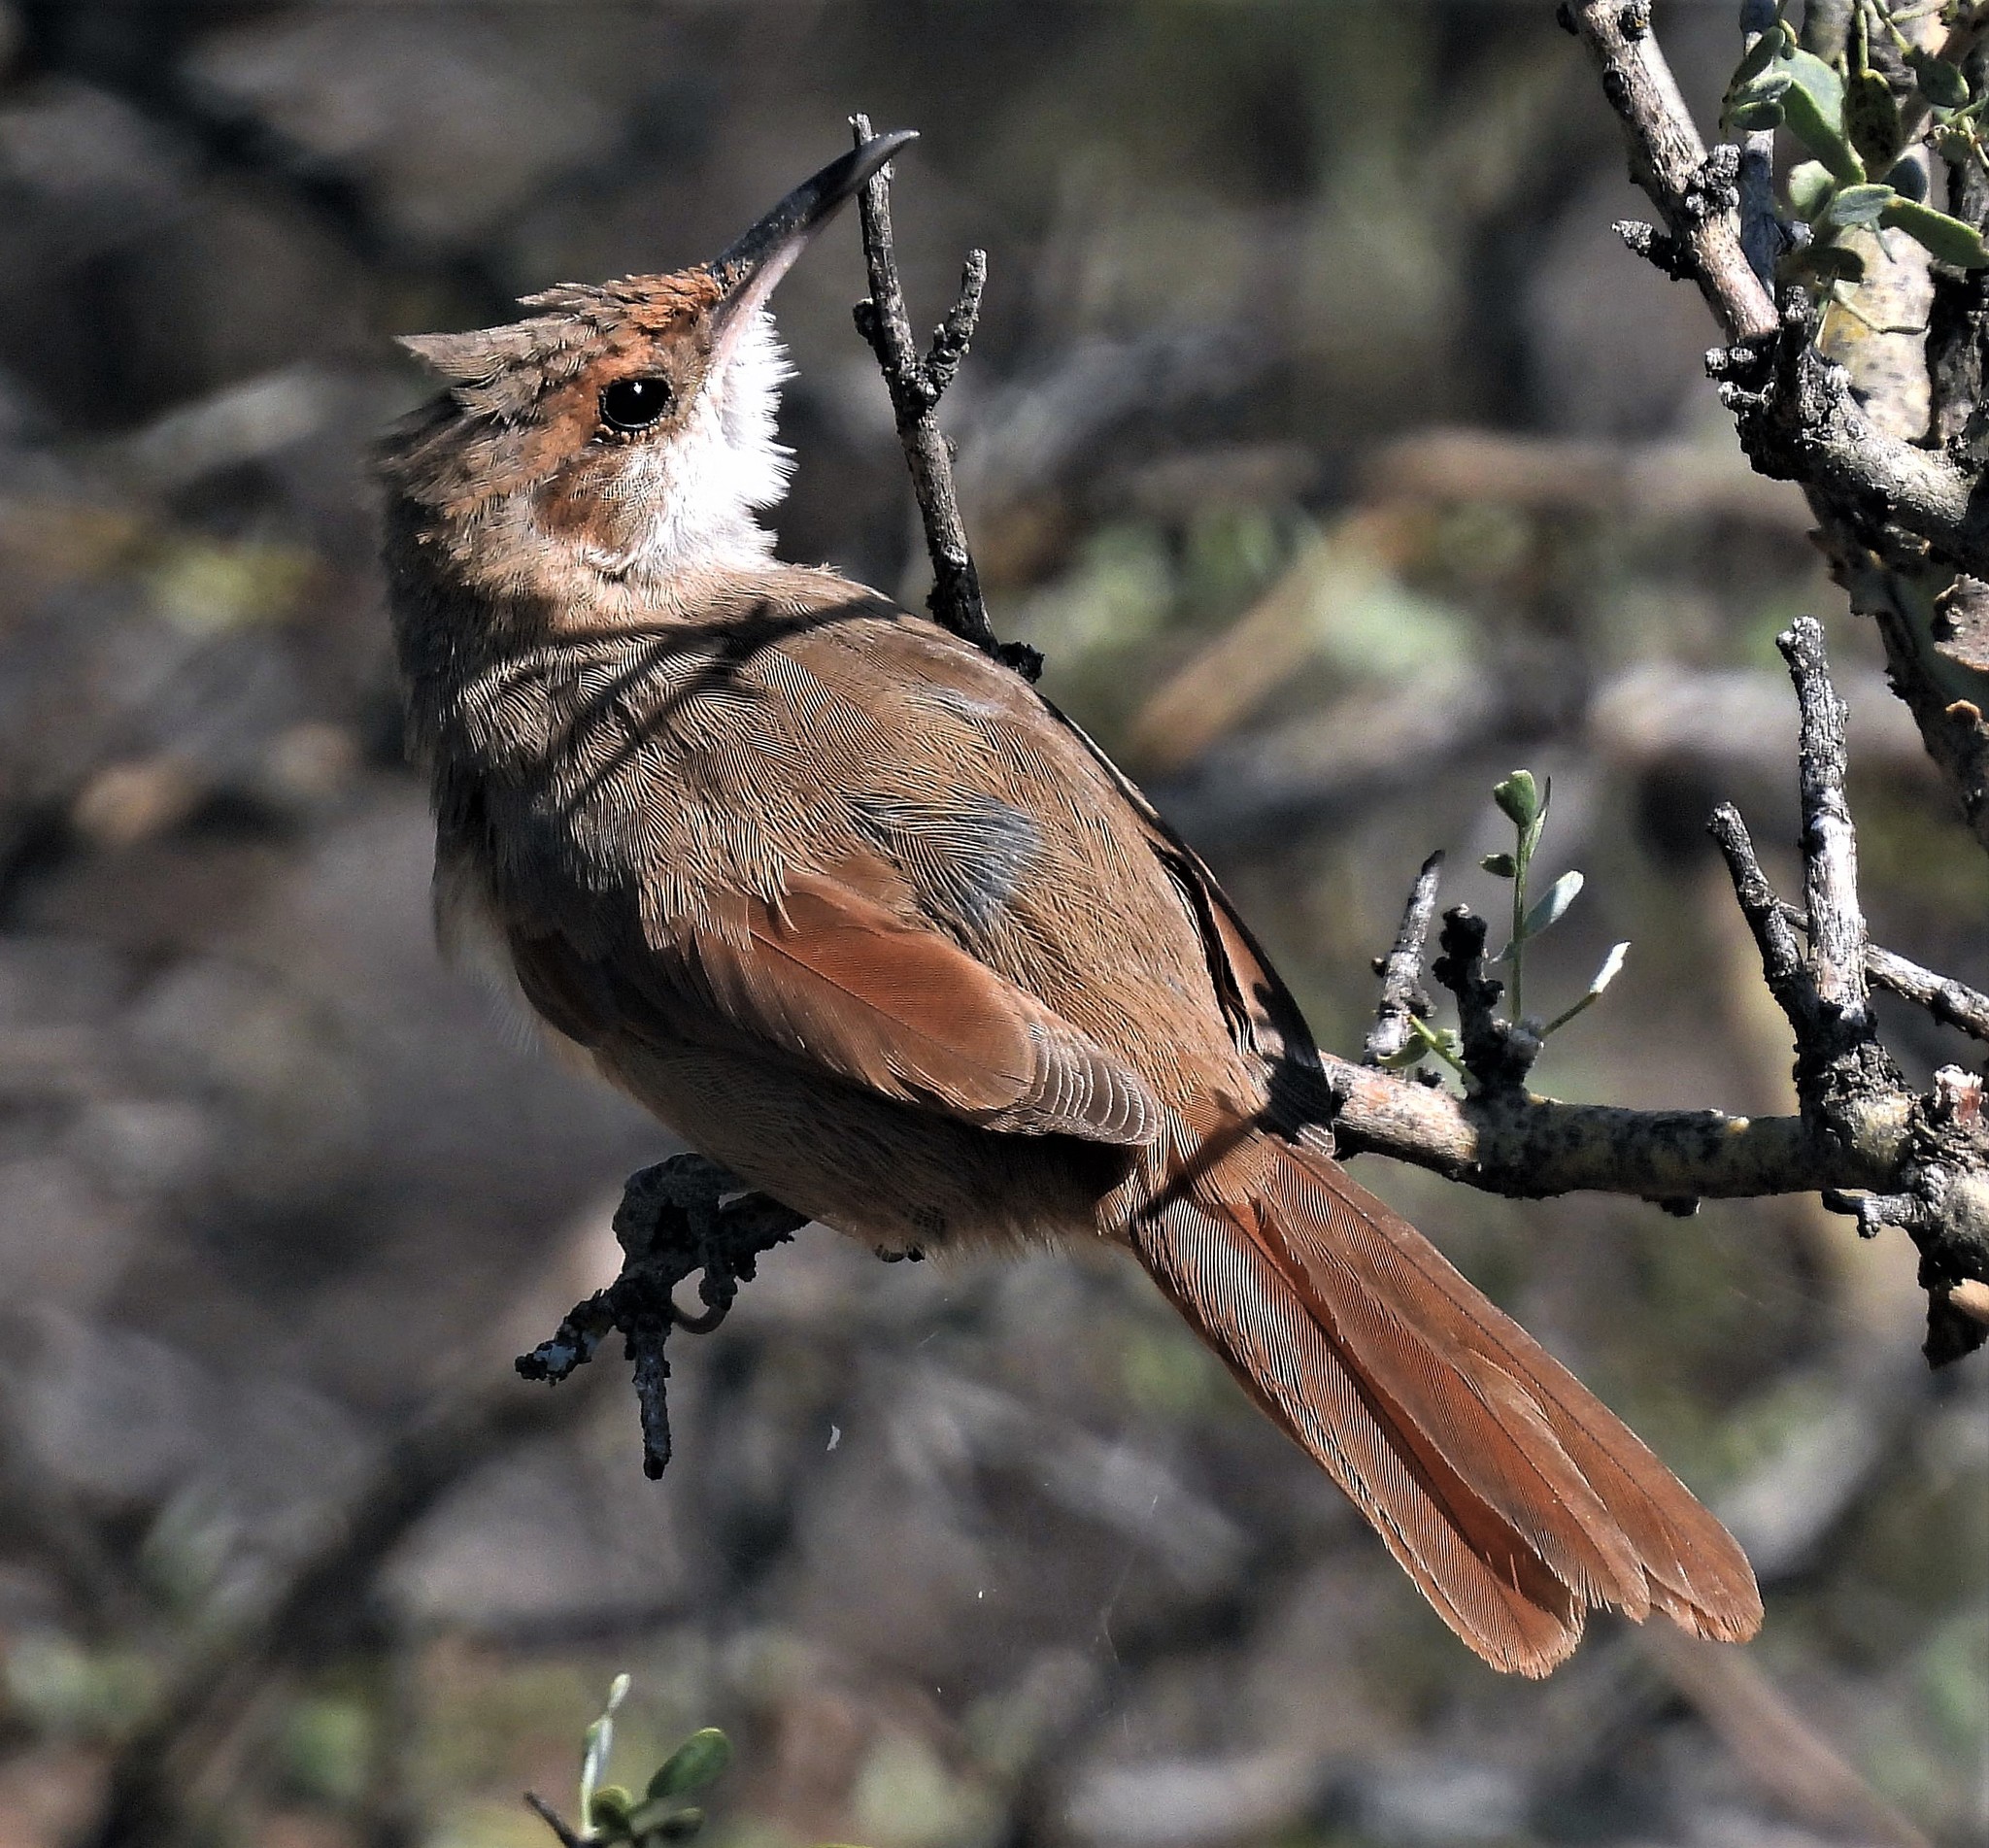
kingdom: Animalia
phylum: Chordata
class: Aves
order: Passeriformes
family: Furnariidae
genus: Upucerthia
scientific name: Upucerthia certhioides
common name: Chaco earthcreeper
